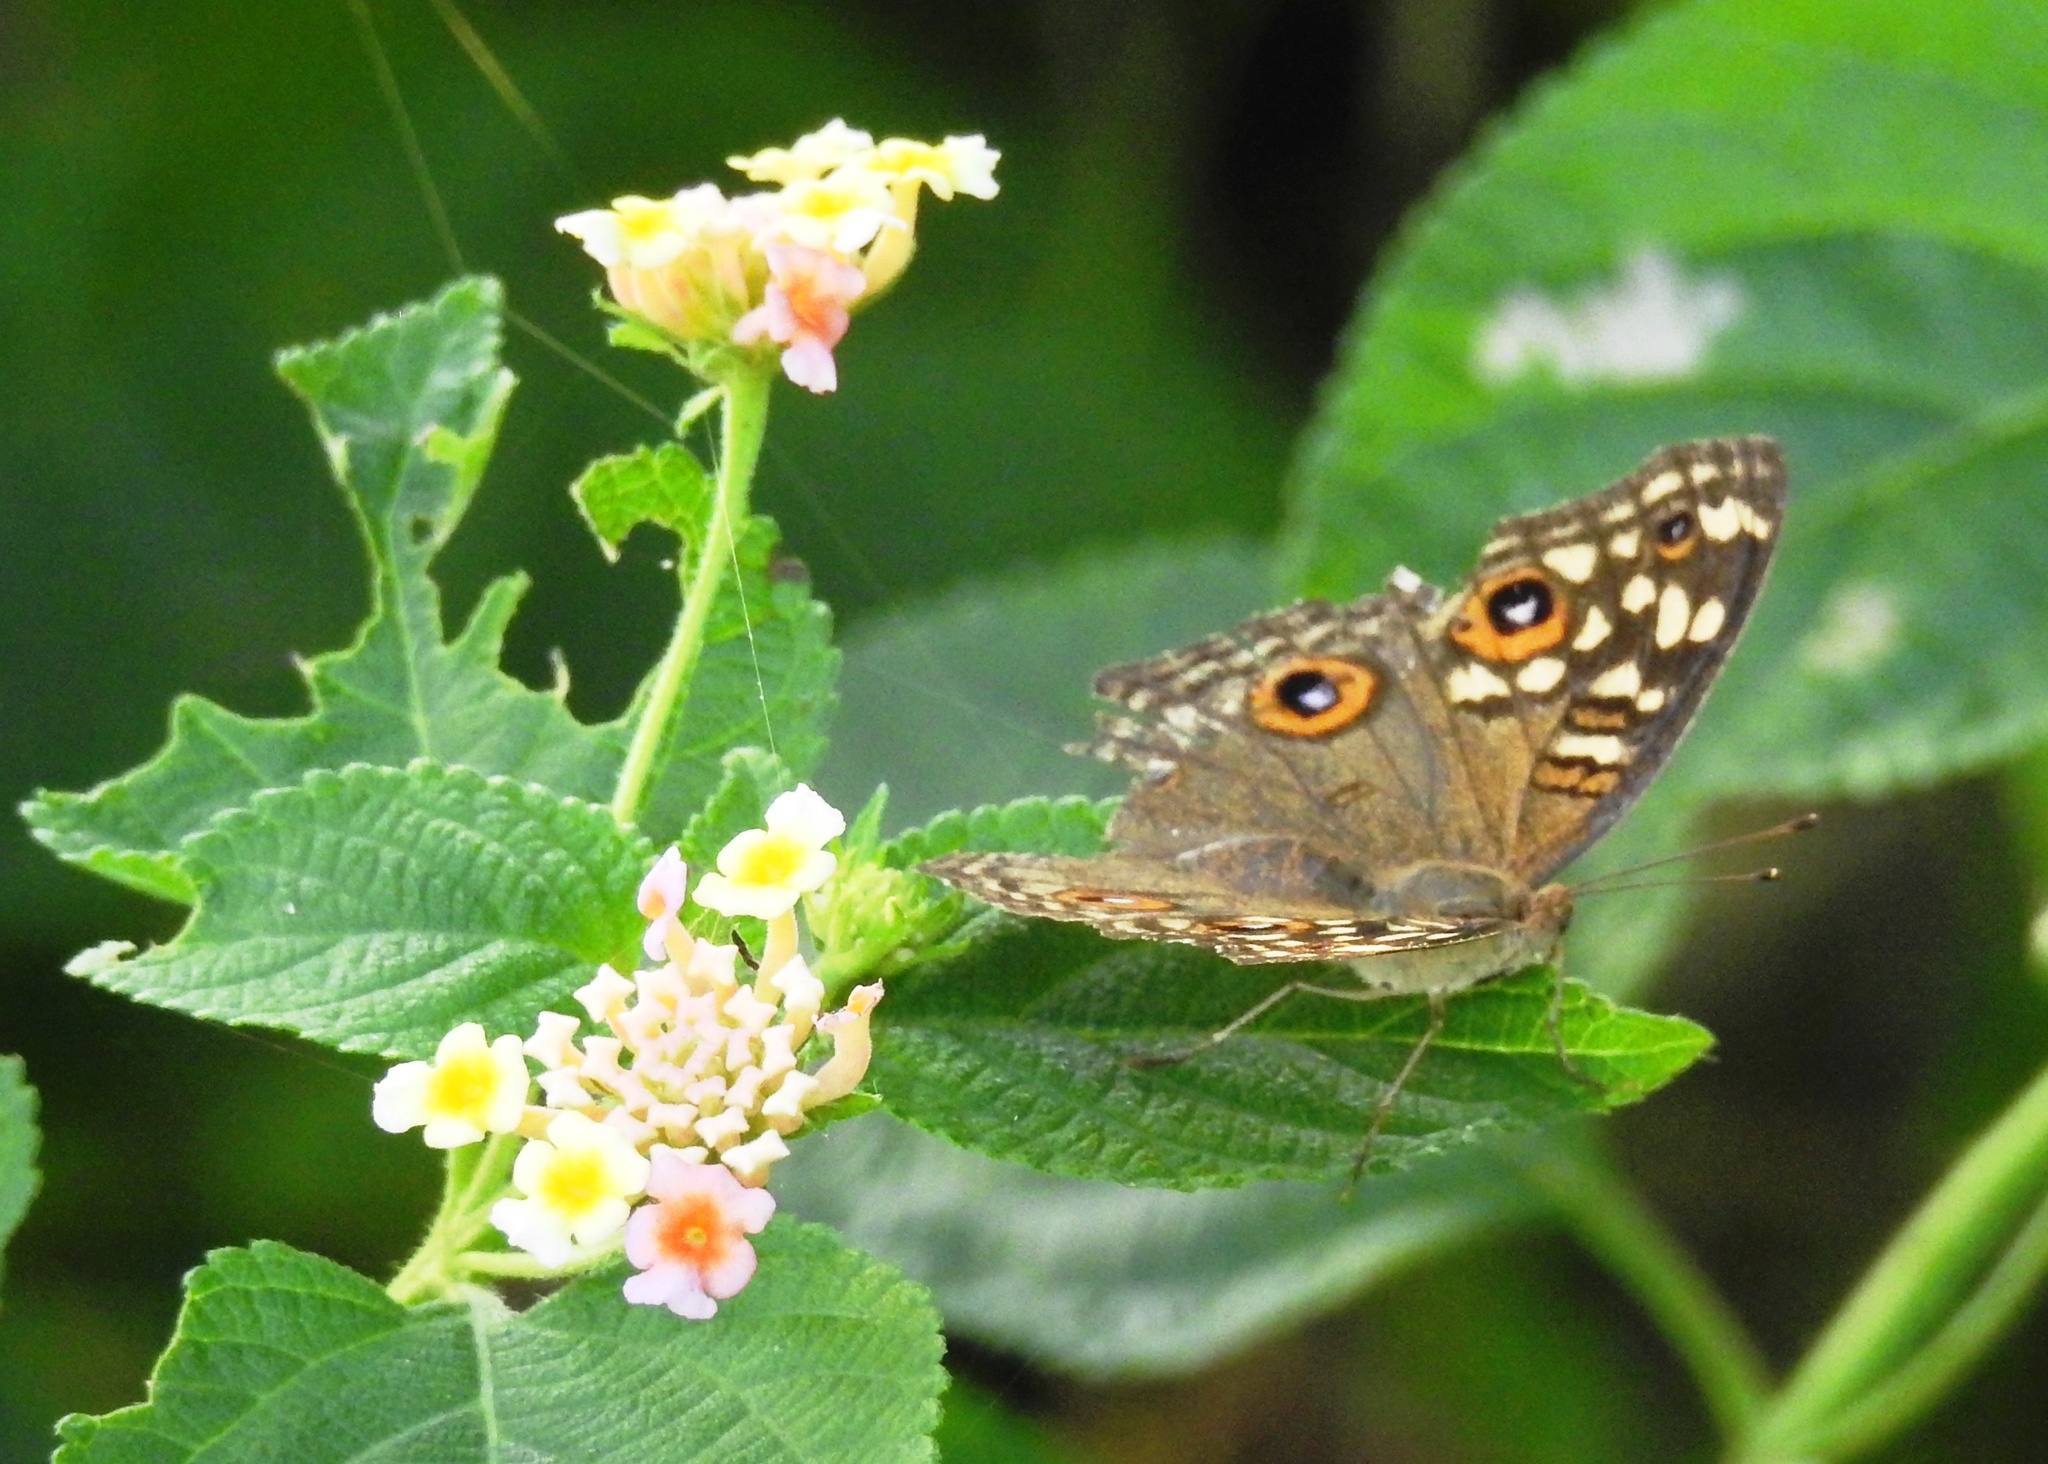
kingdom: Animalia
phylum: Arthropoda
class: Insecta
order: Lepidoptera
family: Nymphalidae
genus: Junonia
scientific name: Junonia lemonias
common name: Lemon pansy
